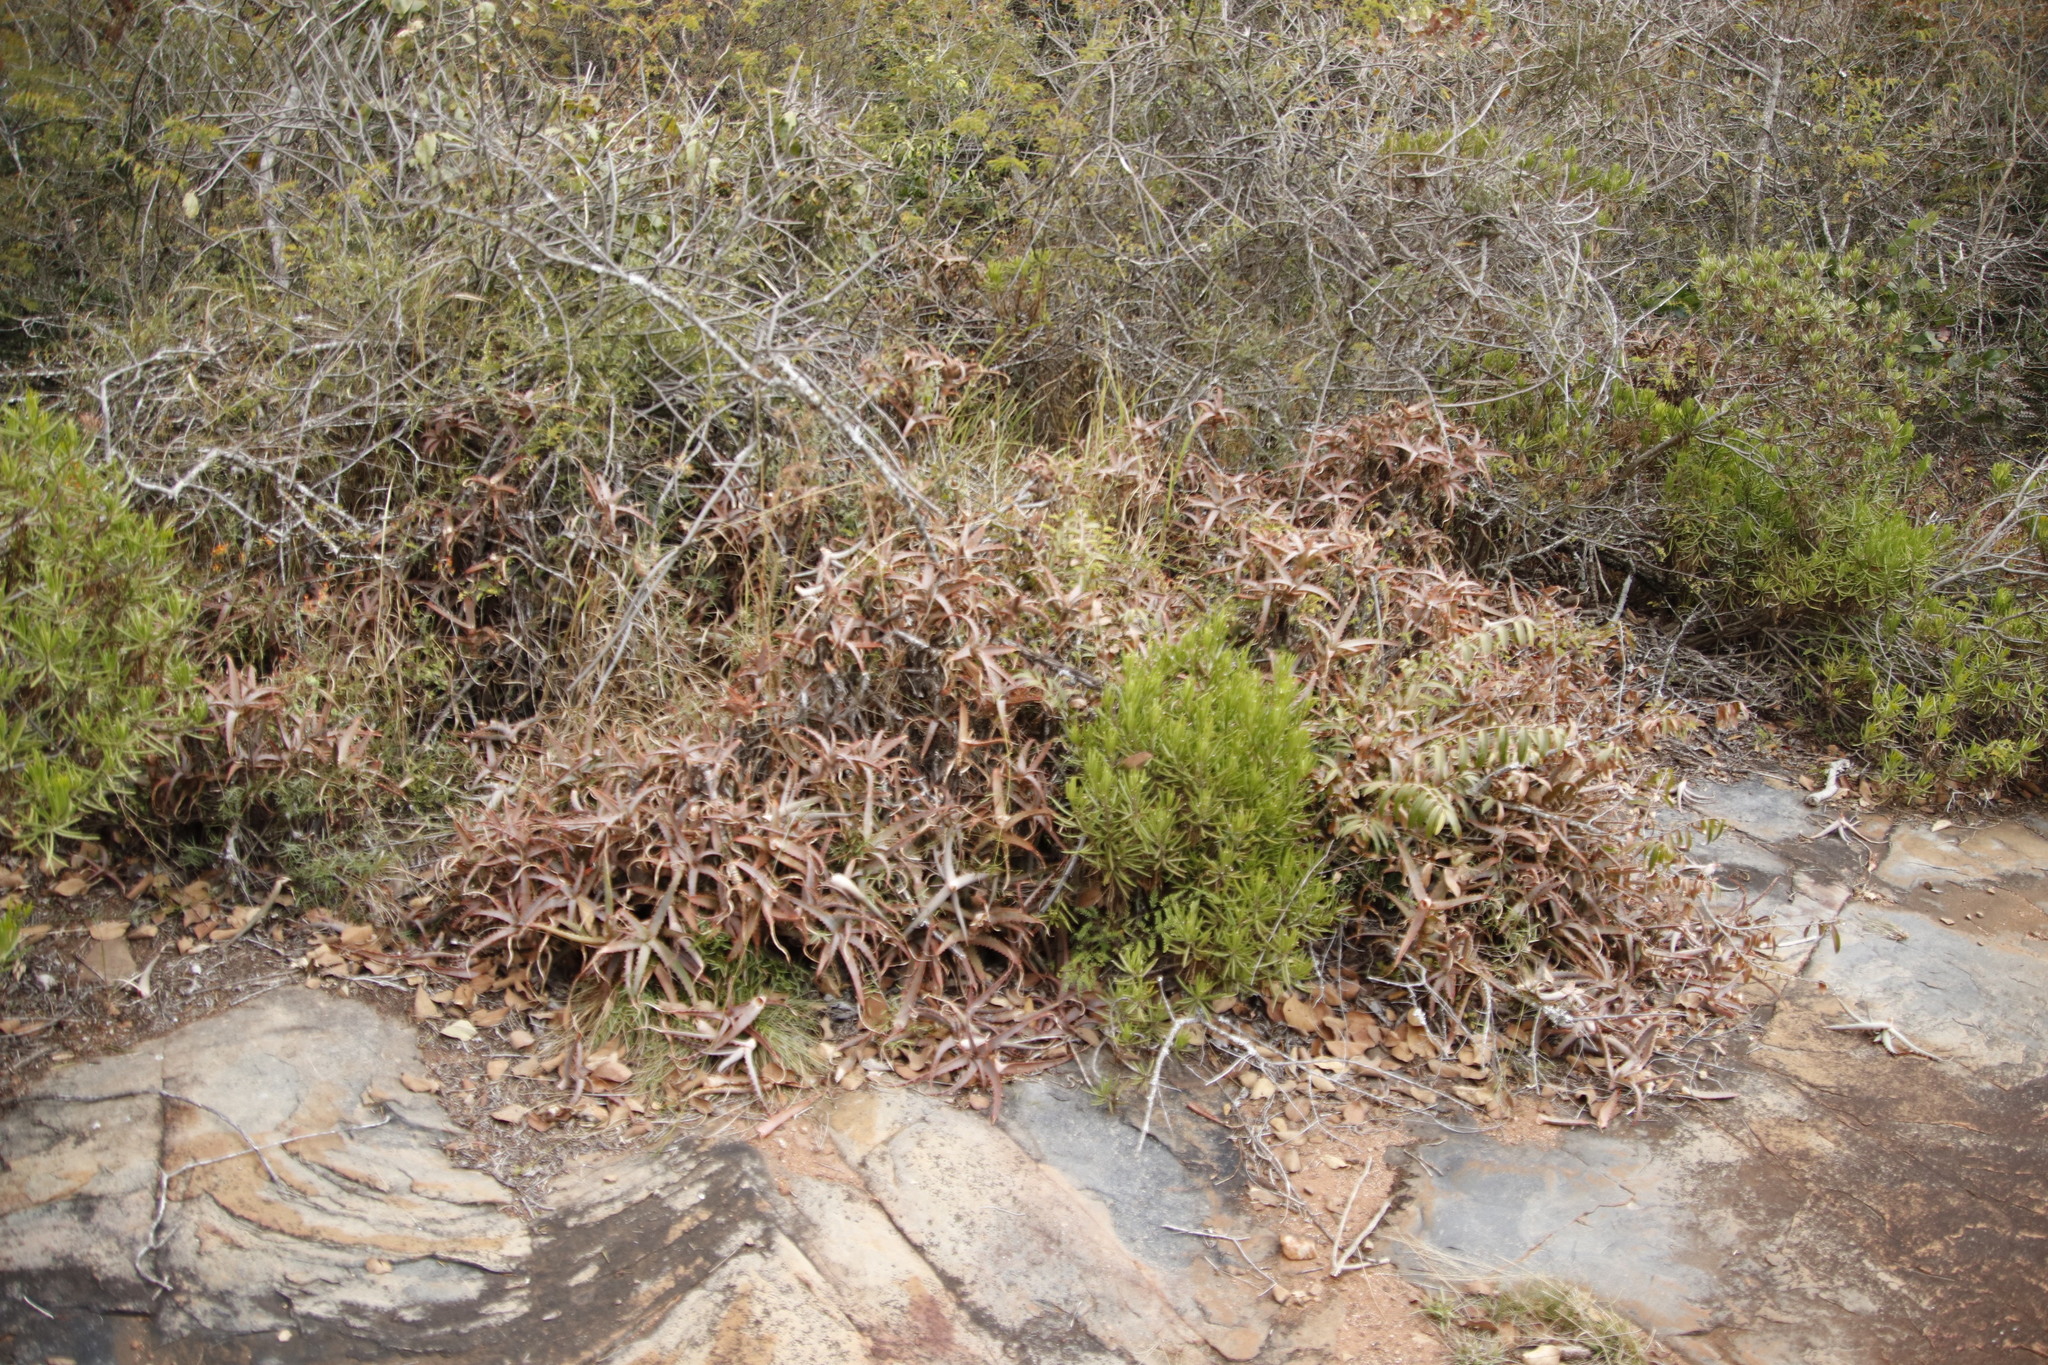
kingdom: Plantae
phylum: Tracheophyta
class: Liliopsida
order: Asparagales
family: Asphodelaceae
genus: Aloe
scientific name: Aloe arborescens
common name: Candelabra aloe
